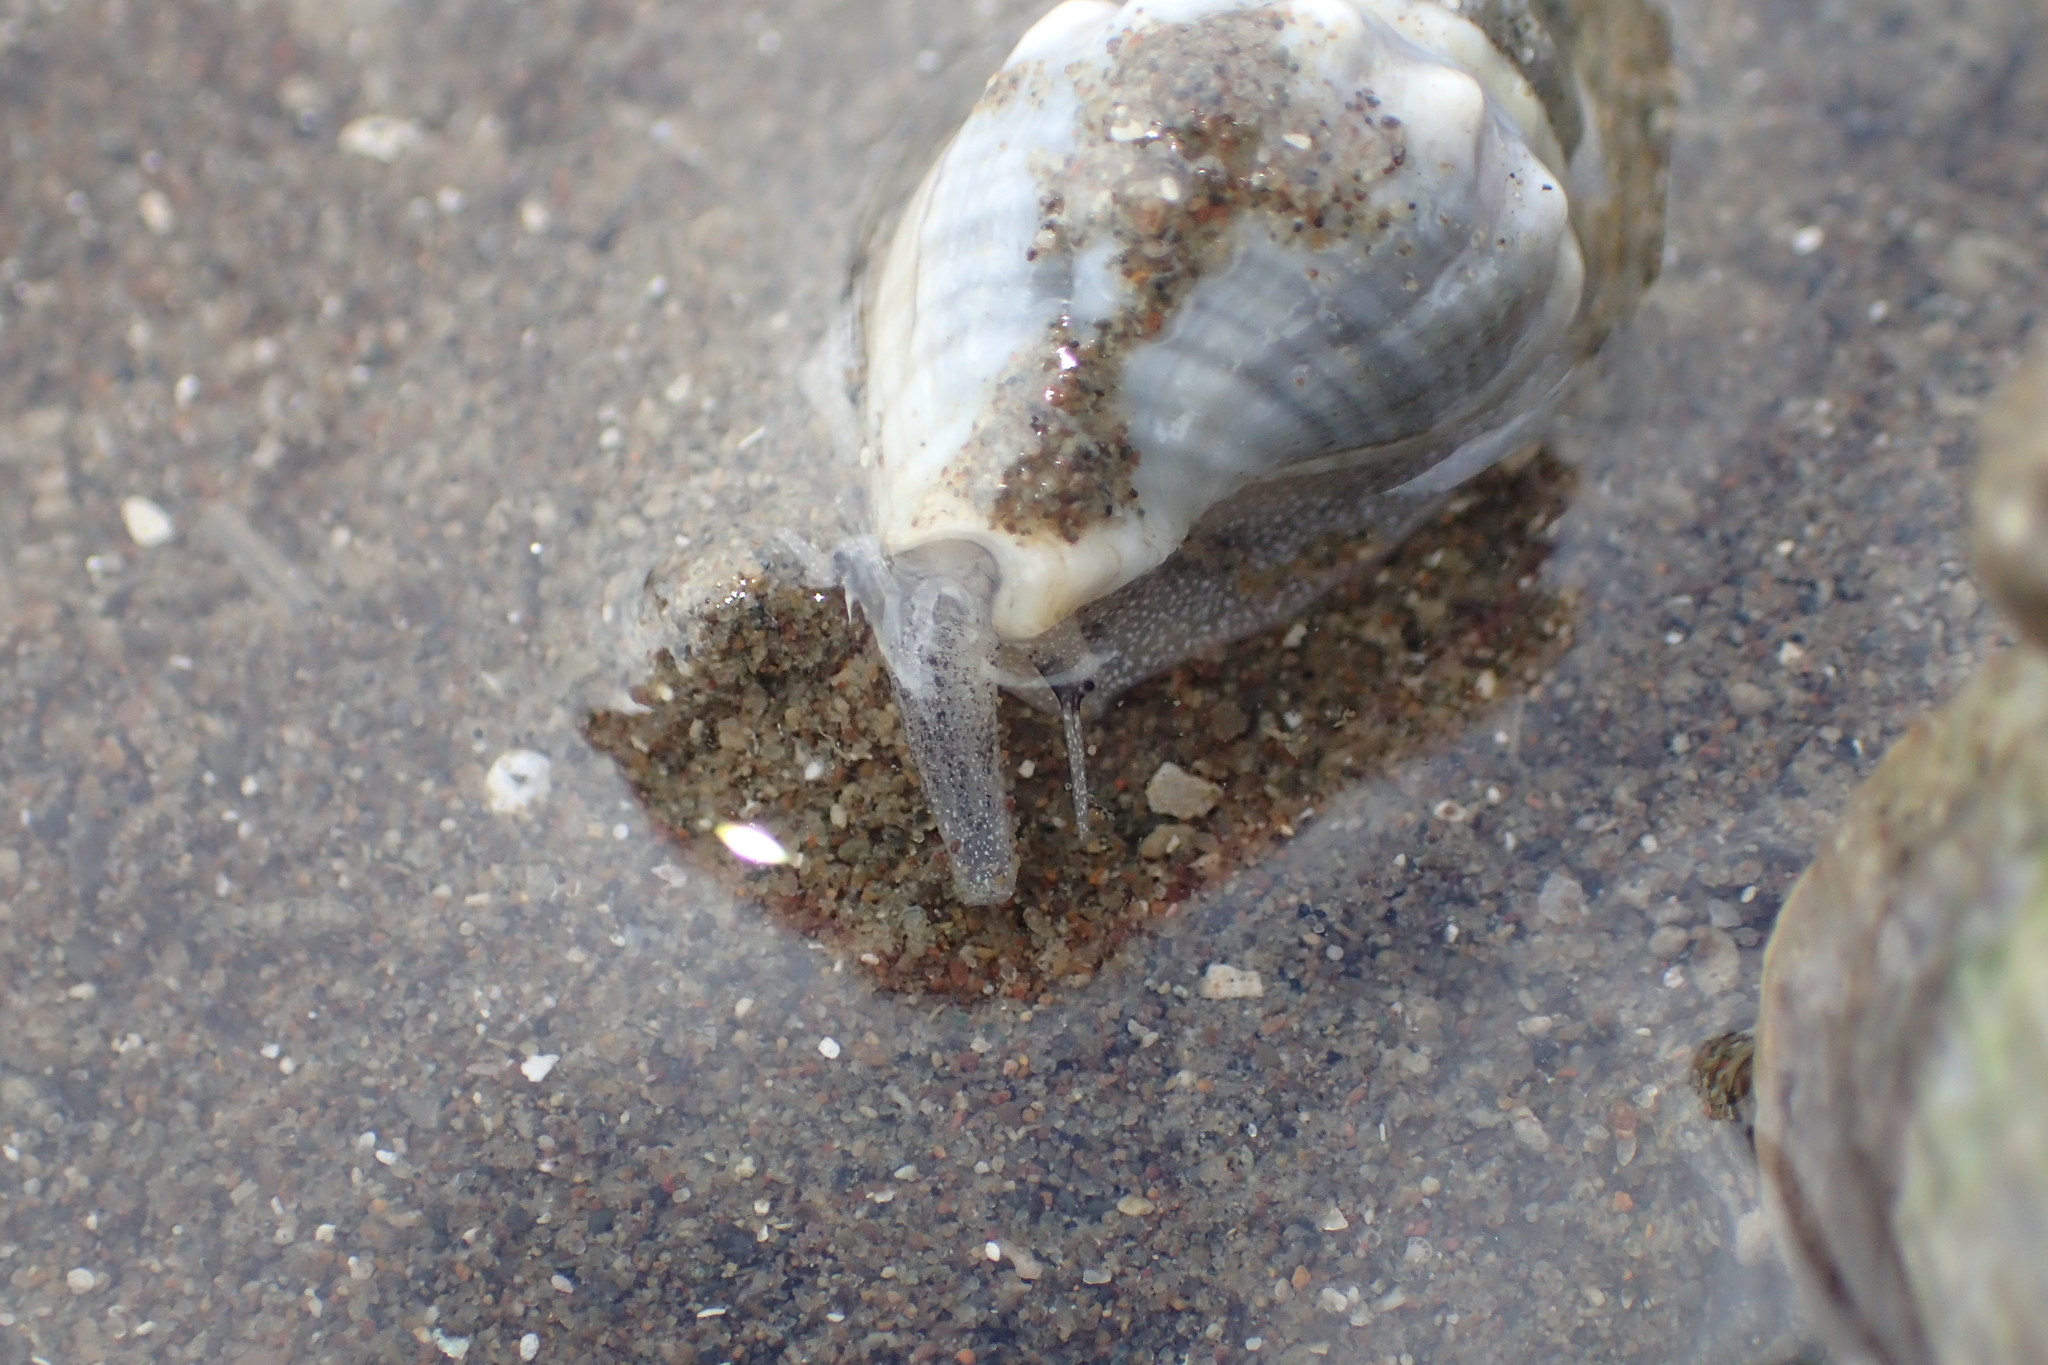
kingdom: Animalia
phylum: Mollusca
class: Gastropoda
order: Neogastropoda
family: Cominellidae
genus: Cominella
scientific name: Cominella glandiformis
